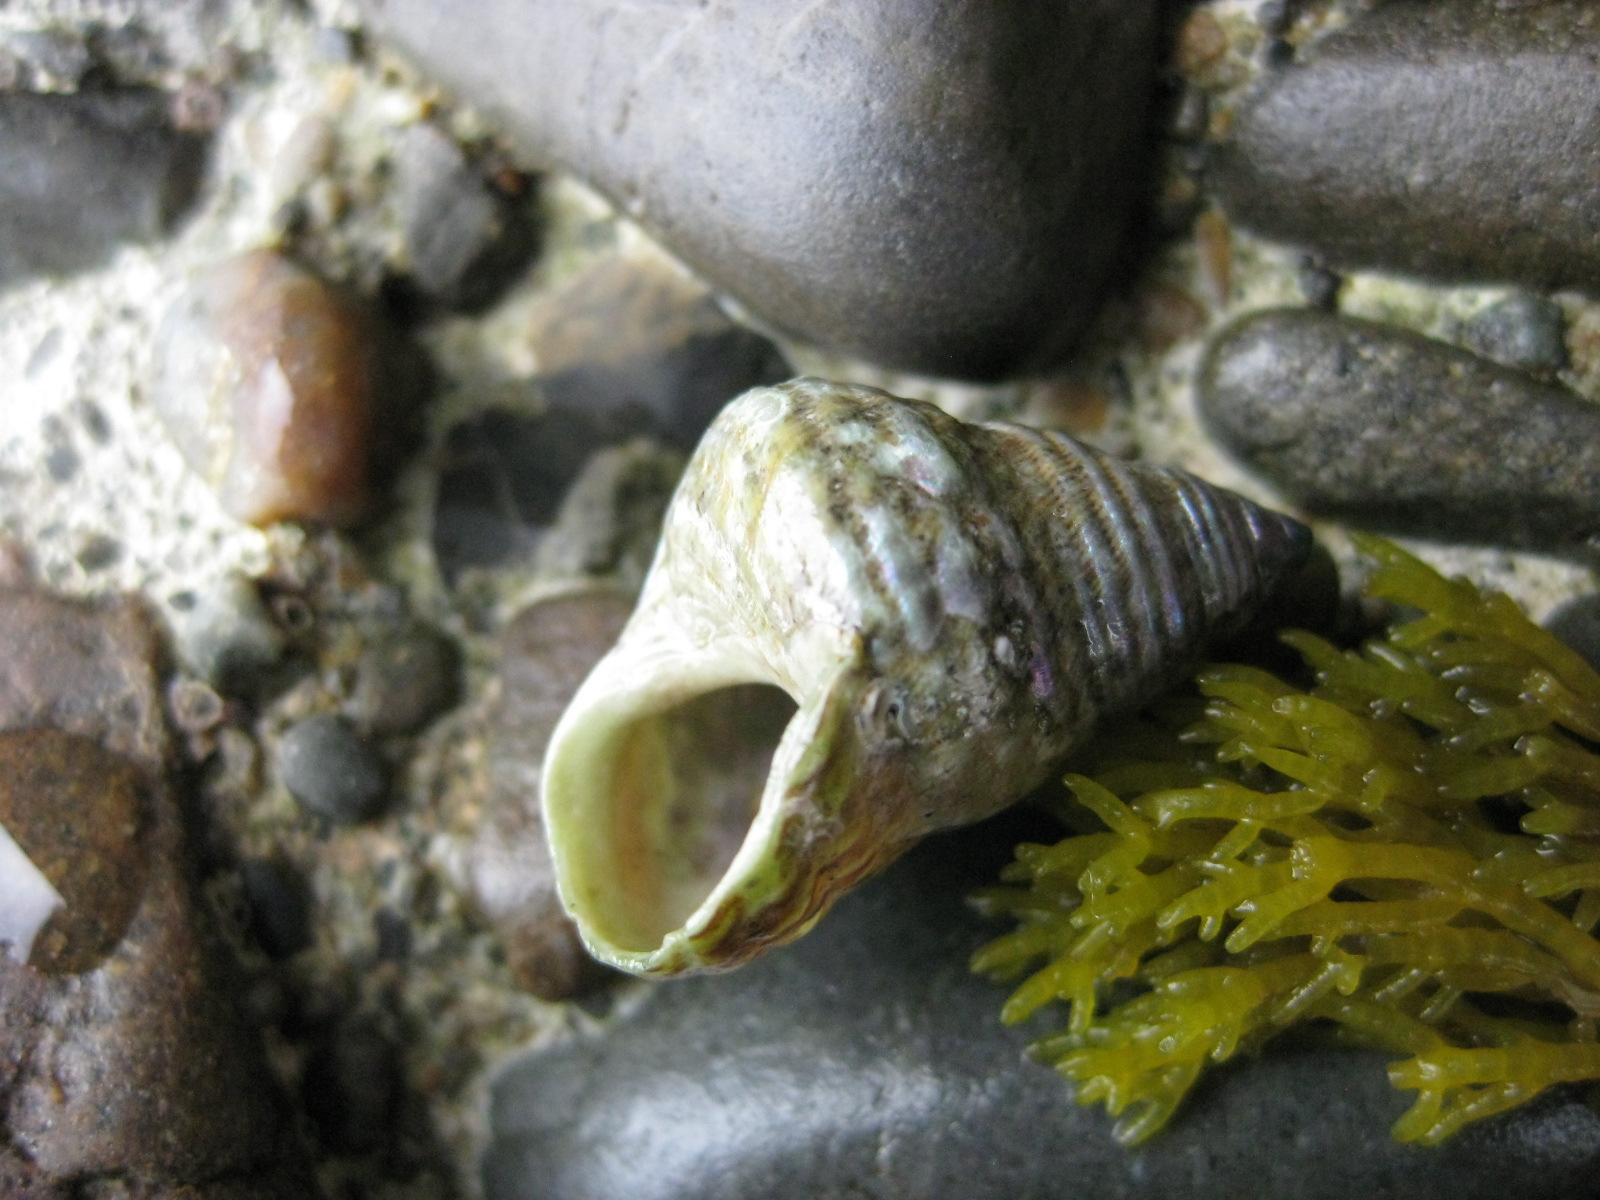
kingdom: Animalia
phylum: Mollusca
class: Gastropoda
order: Trochida
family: Trochidae
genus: Micrelenchus
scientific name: Micrelenchus purpureus
